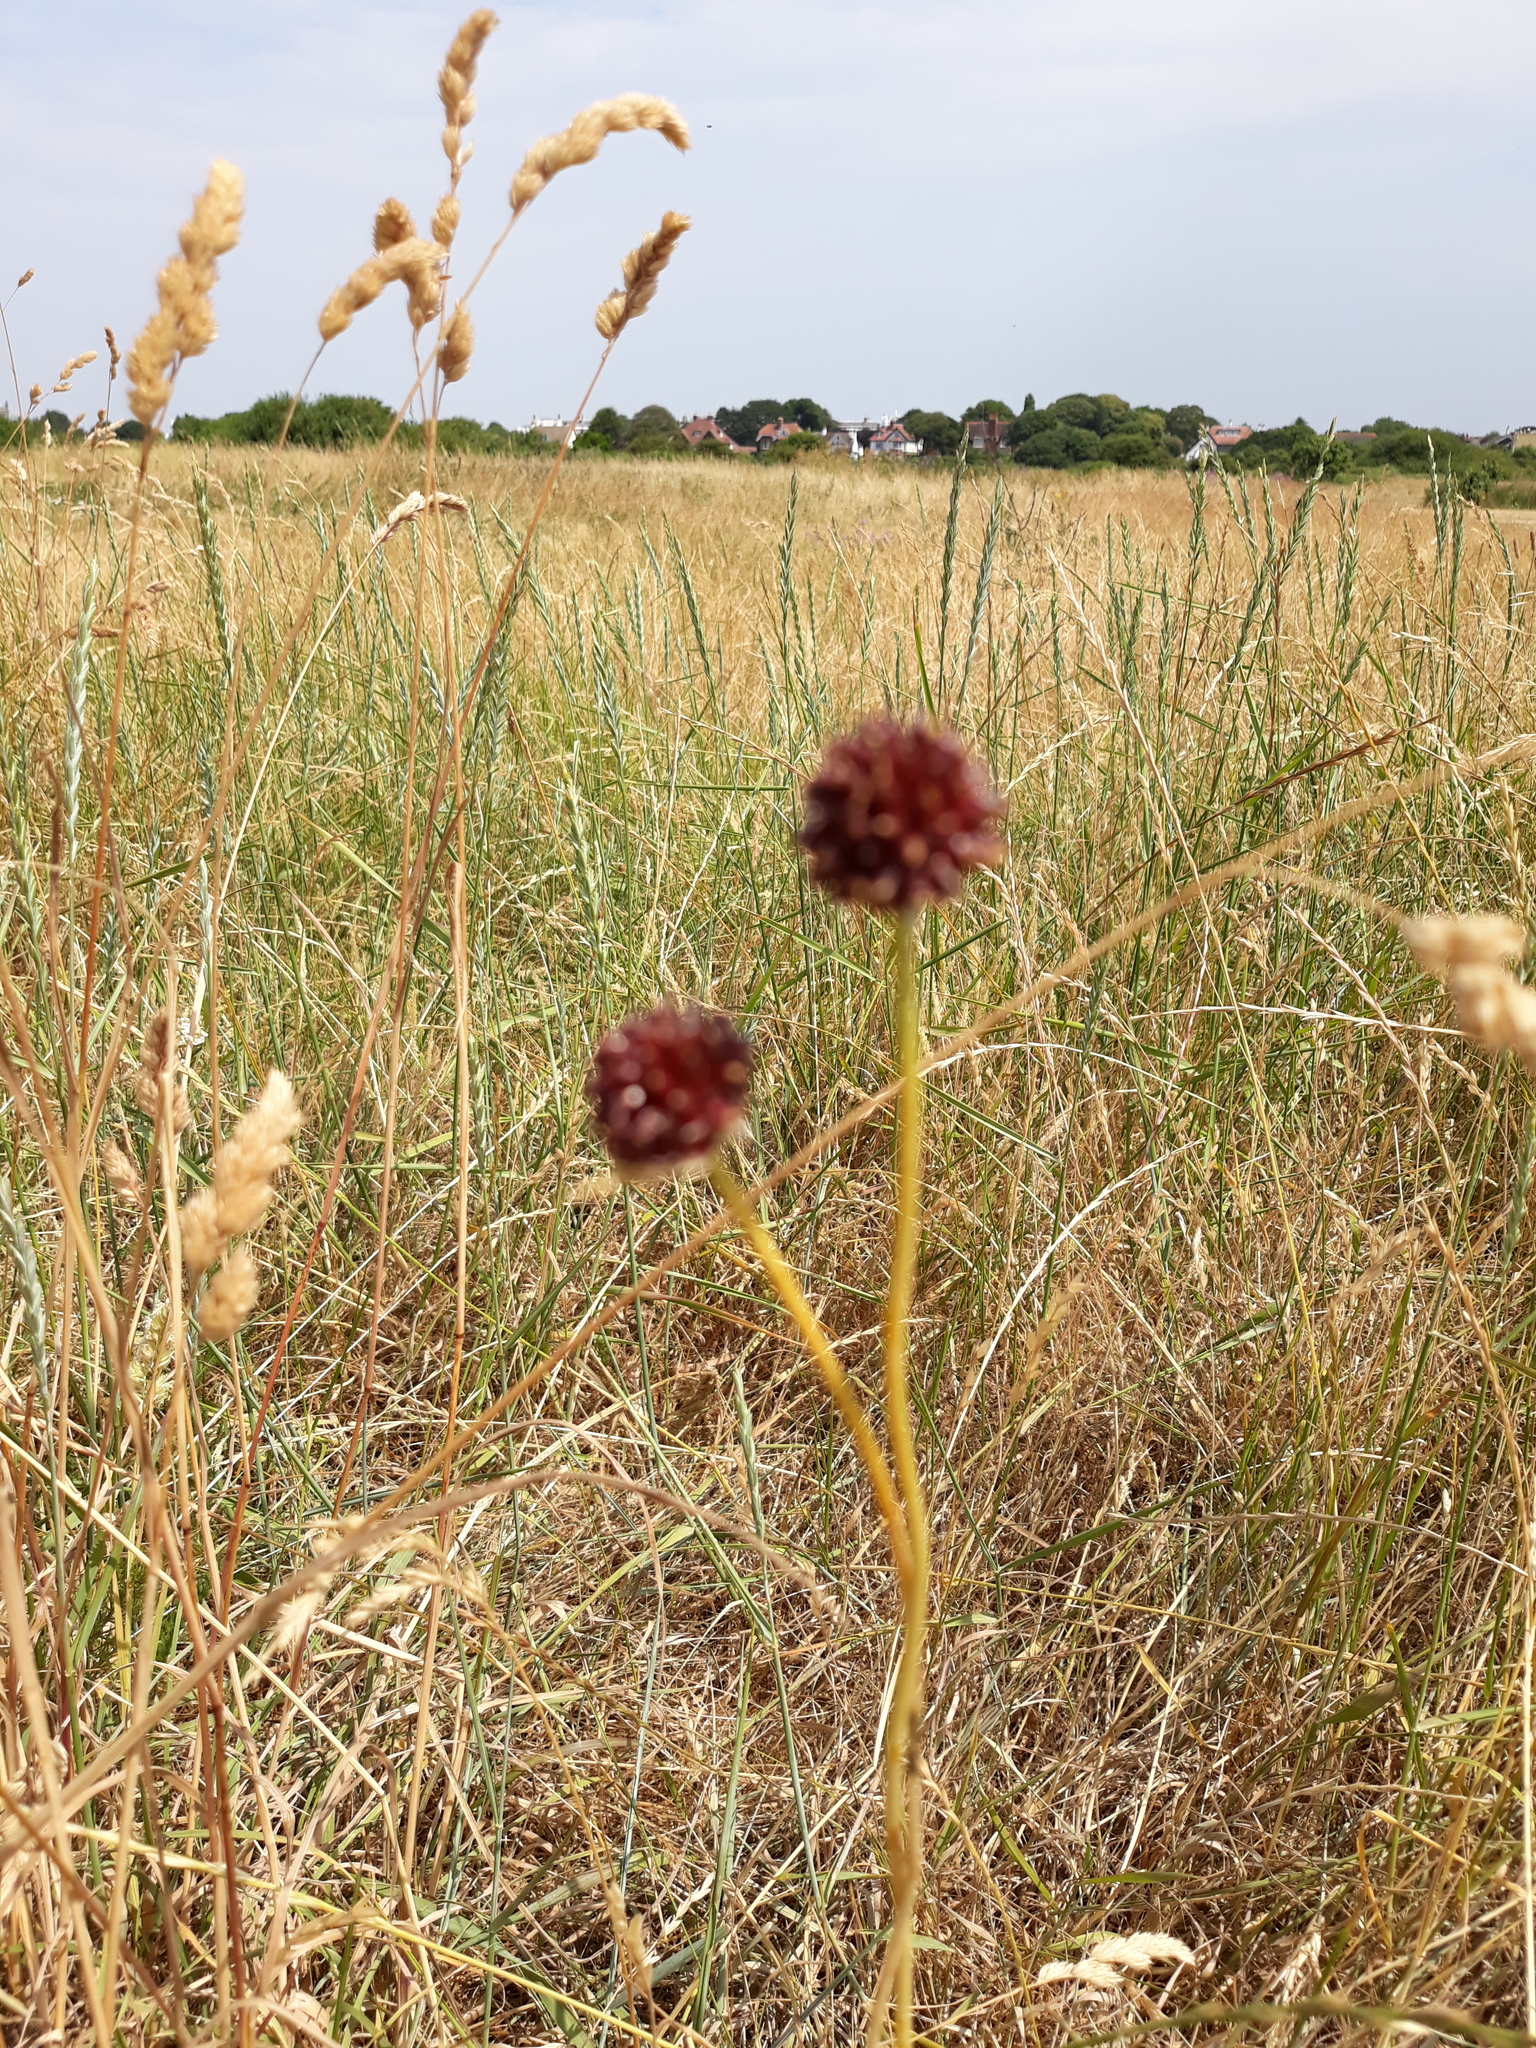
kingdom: Plantae
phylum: Tracheophyta
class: Liliopsida
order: Asparagales
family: Amaryllidaceae
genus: Allium
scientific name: Allium vineale
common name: Crow garlic
